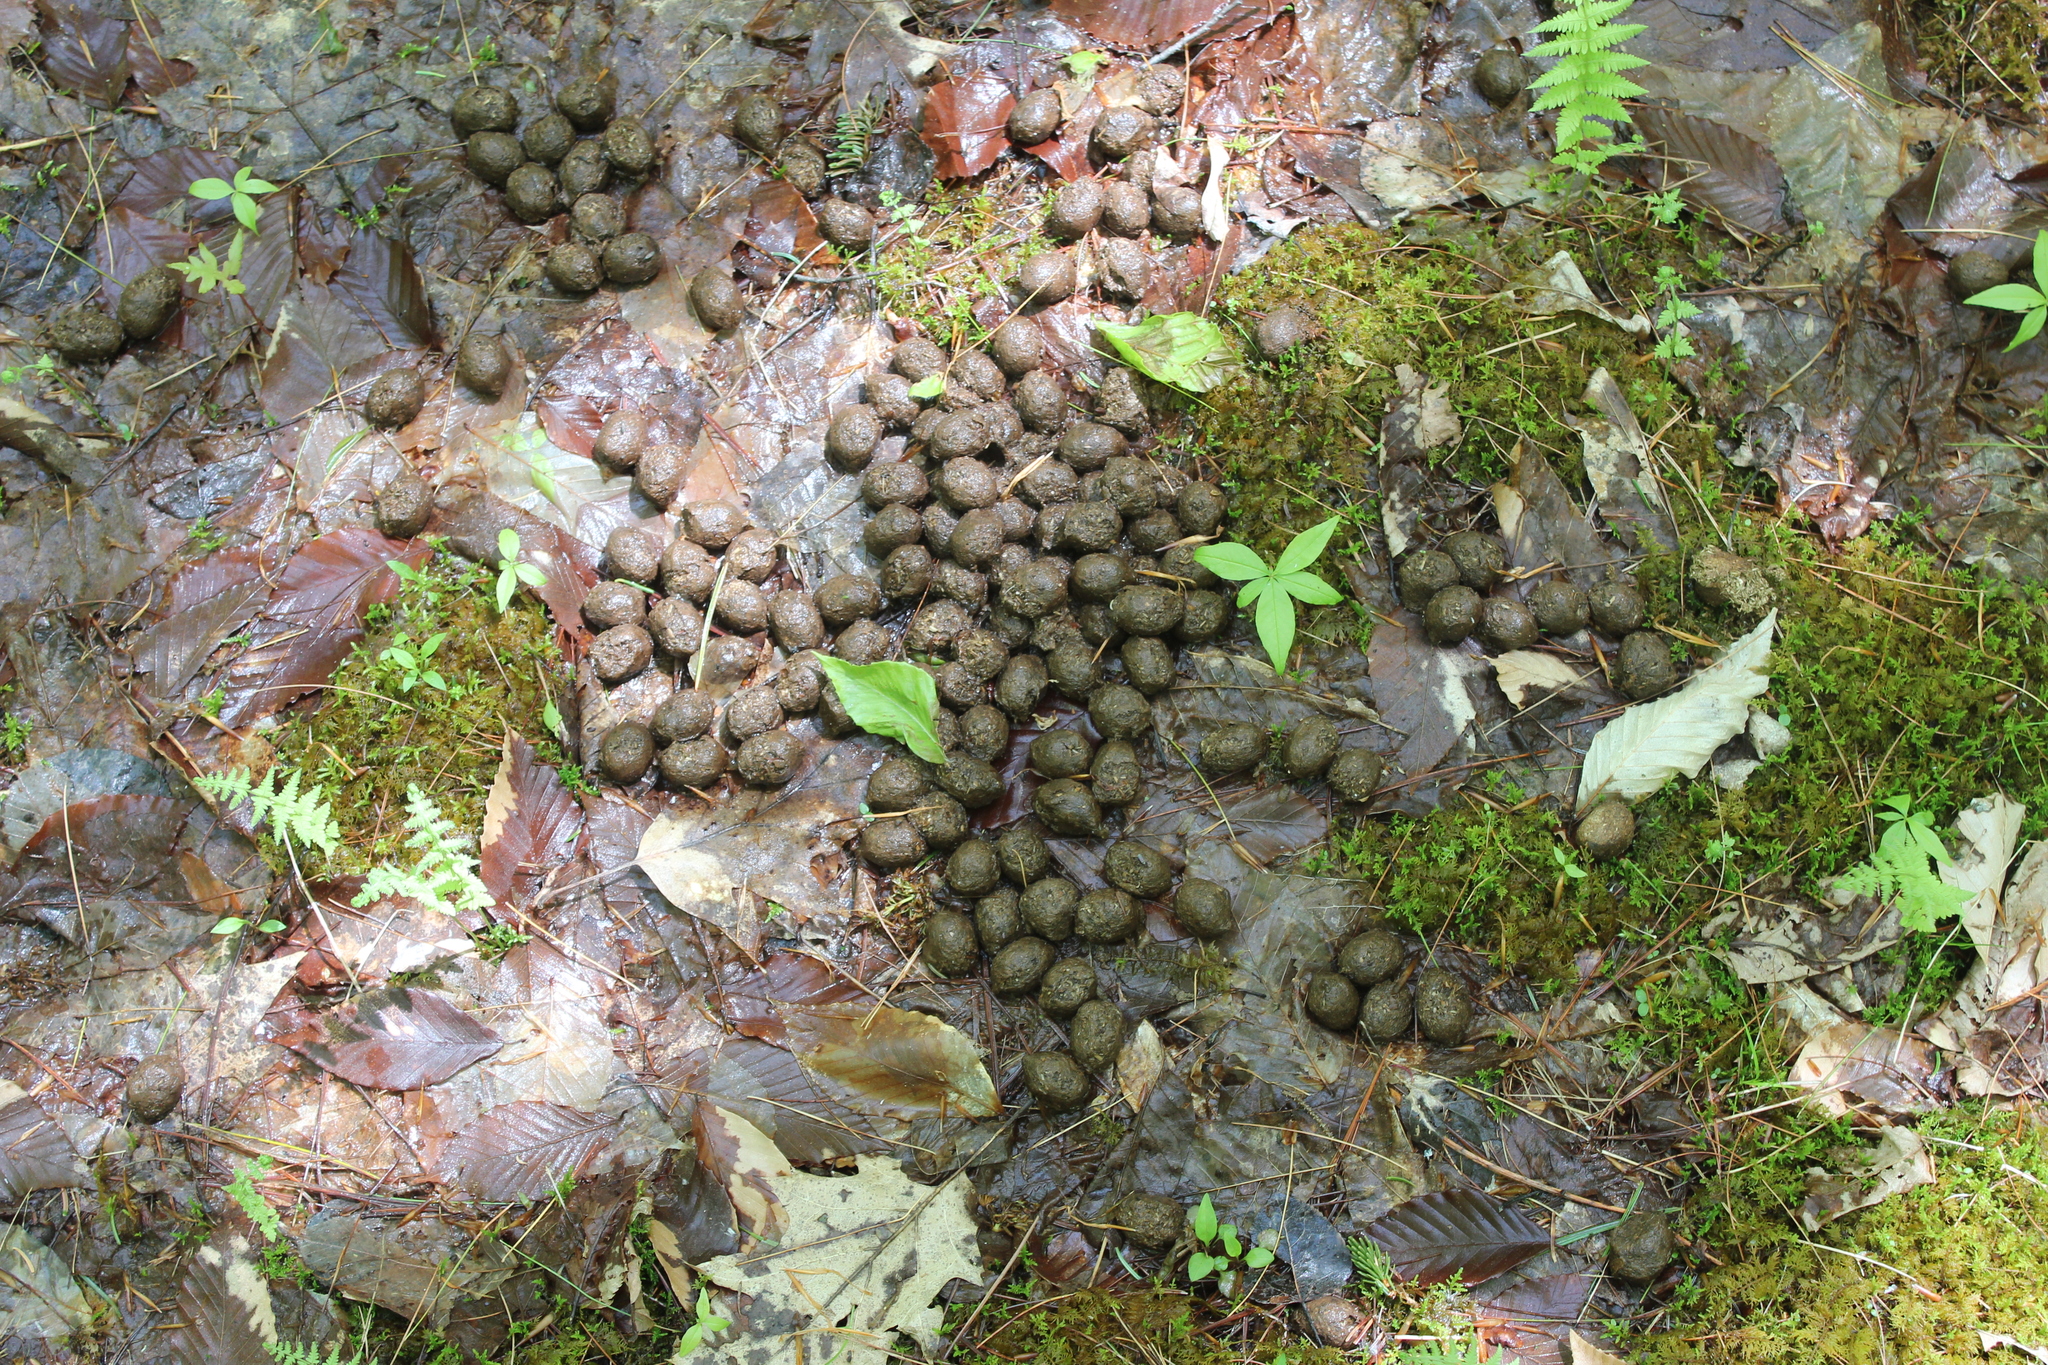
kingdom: Animalia
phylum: Chordata
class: Mammalia
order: Artiodactyla
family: Cervidae
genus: Alces
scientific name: Alces alces
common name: Moose
